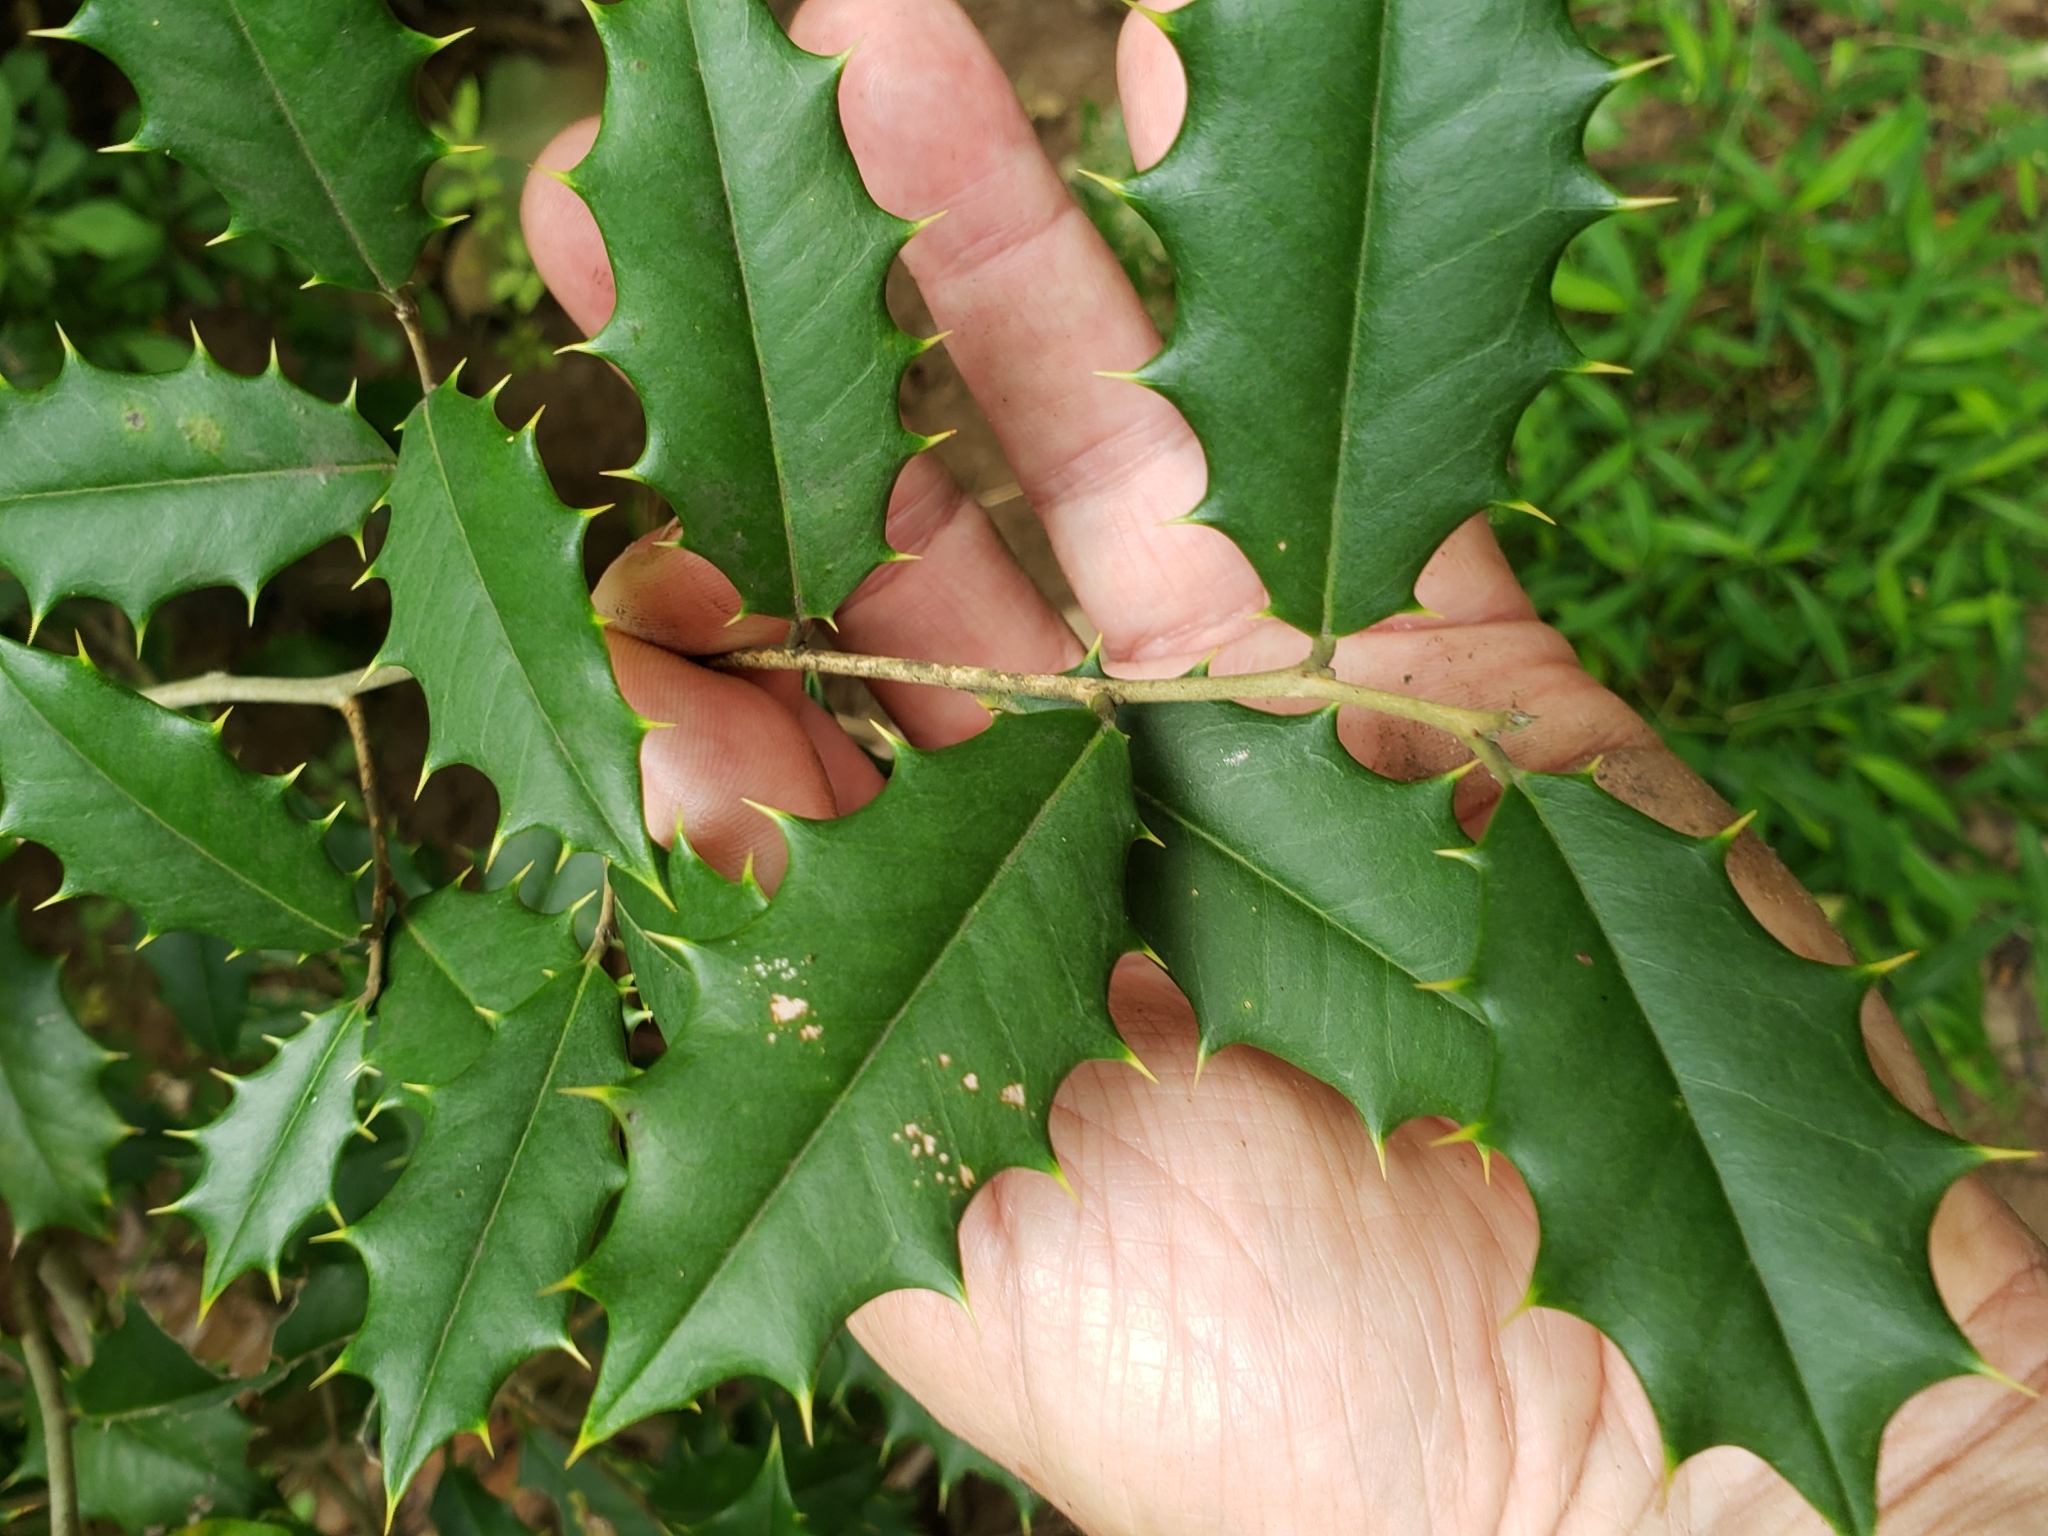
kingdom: Animalia
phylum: Arthropoda
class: Insecta
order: Diptera
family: Agromyzidae
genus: Phytomyza
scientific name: Phytomyza opacae
